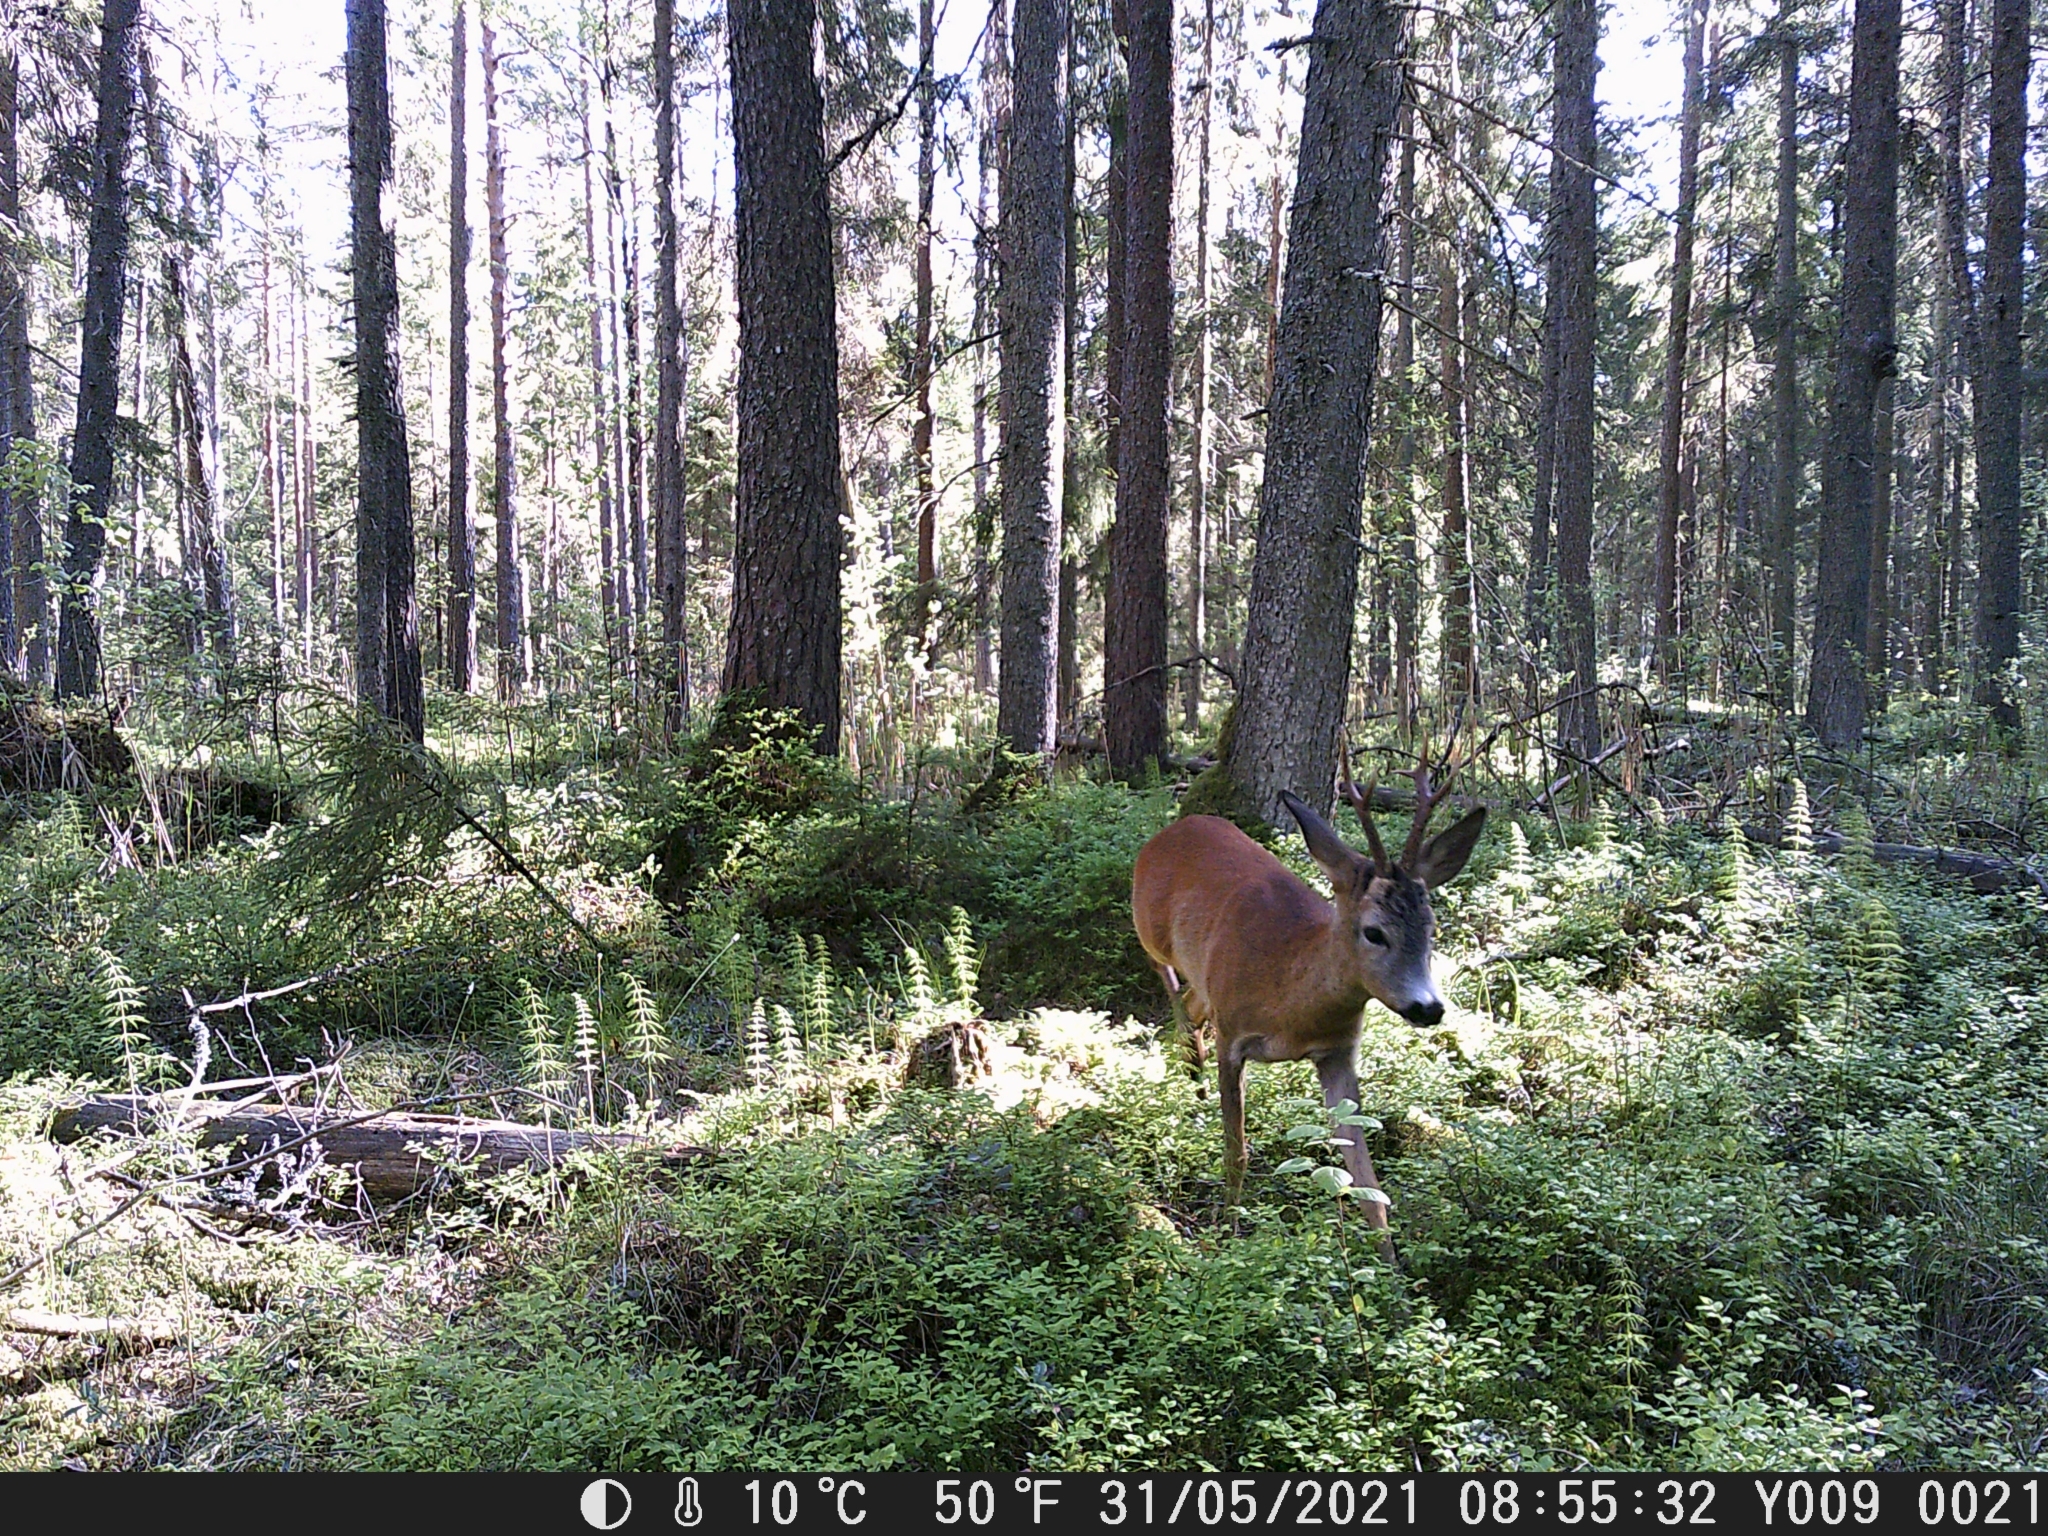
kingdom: Animalia
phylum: Chordata
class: Mammalia
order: Artiodactyla
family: Cervidae
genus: Capreolus
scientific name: Capreolus capreolus
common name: Western roe deer
